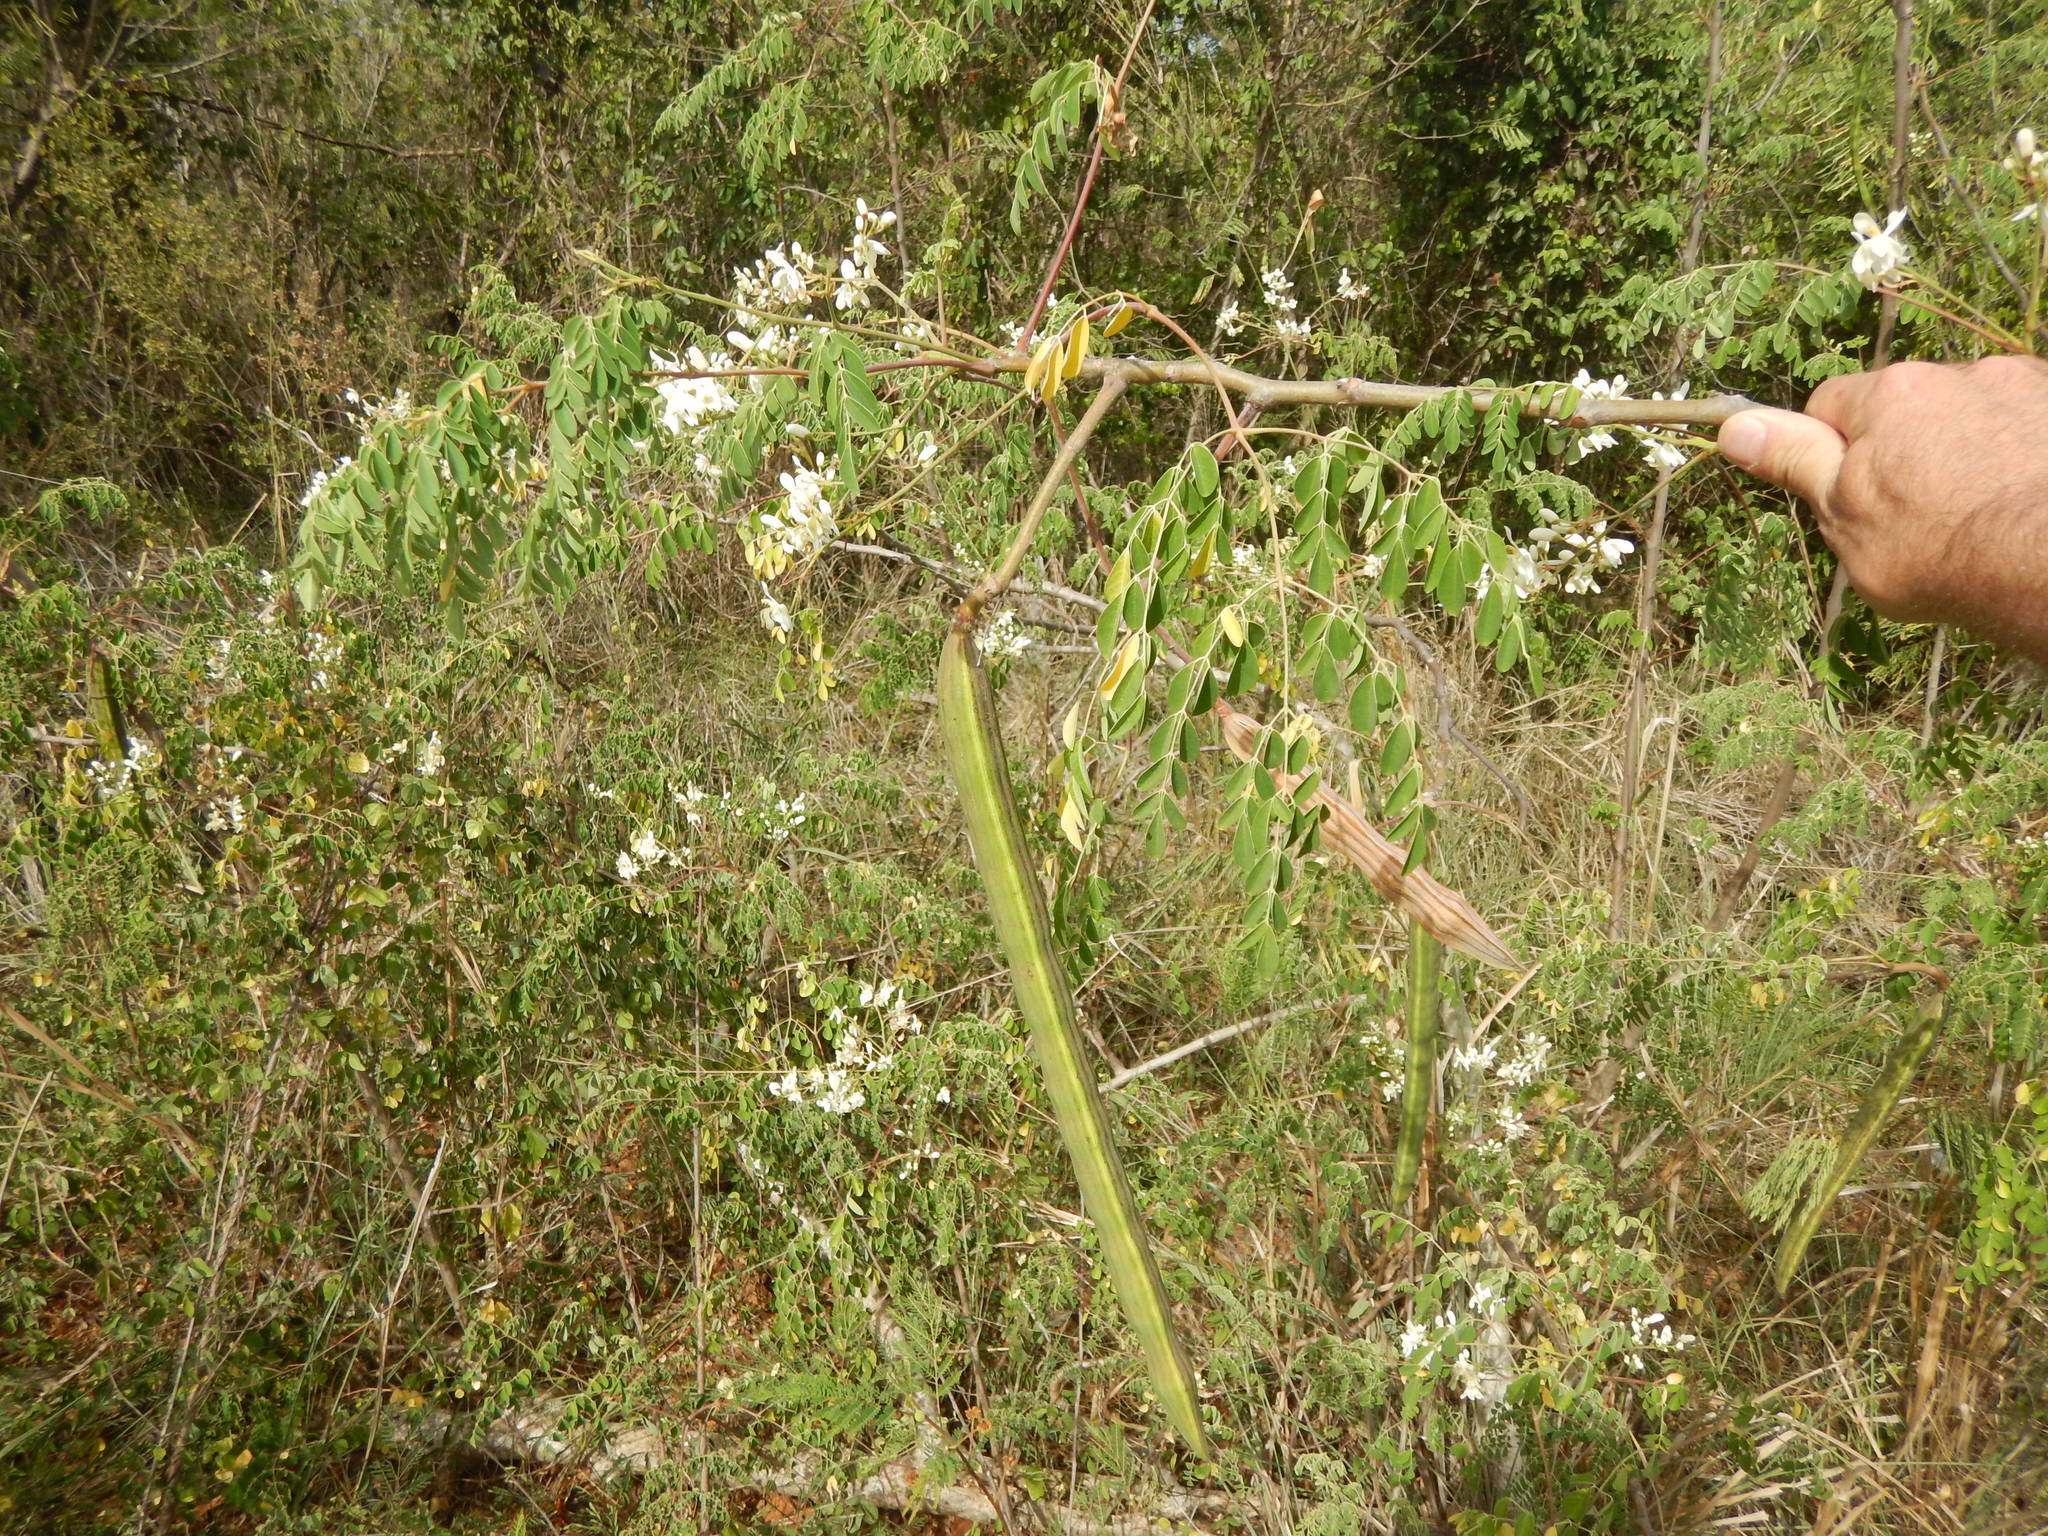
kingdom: Plantae
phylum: Tracheophyta
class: Magnoliopsida
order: Brassicales
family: Moringaceae
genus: Moringa
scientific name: Moringa oleifera
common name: Horseradish-tree
